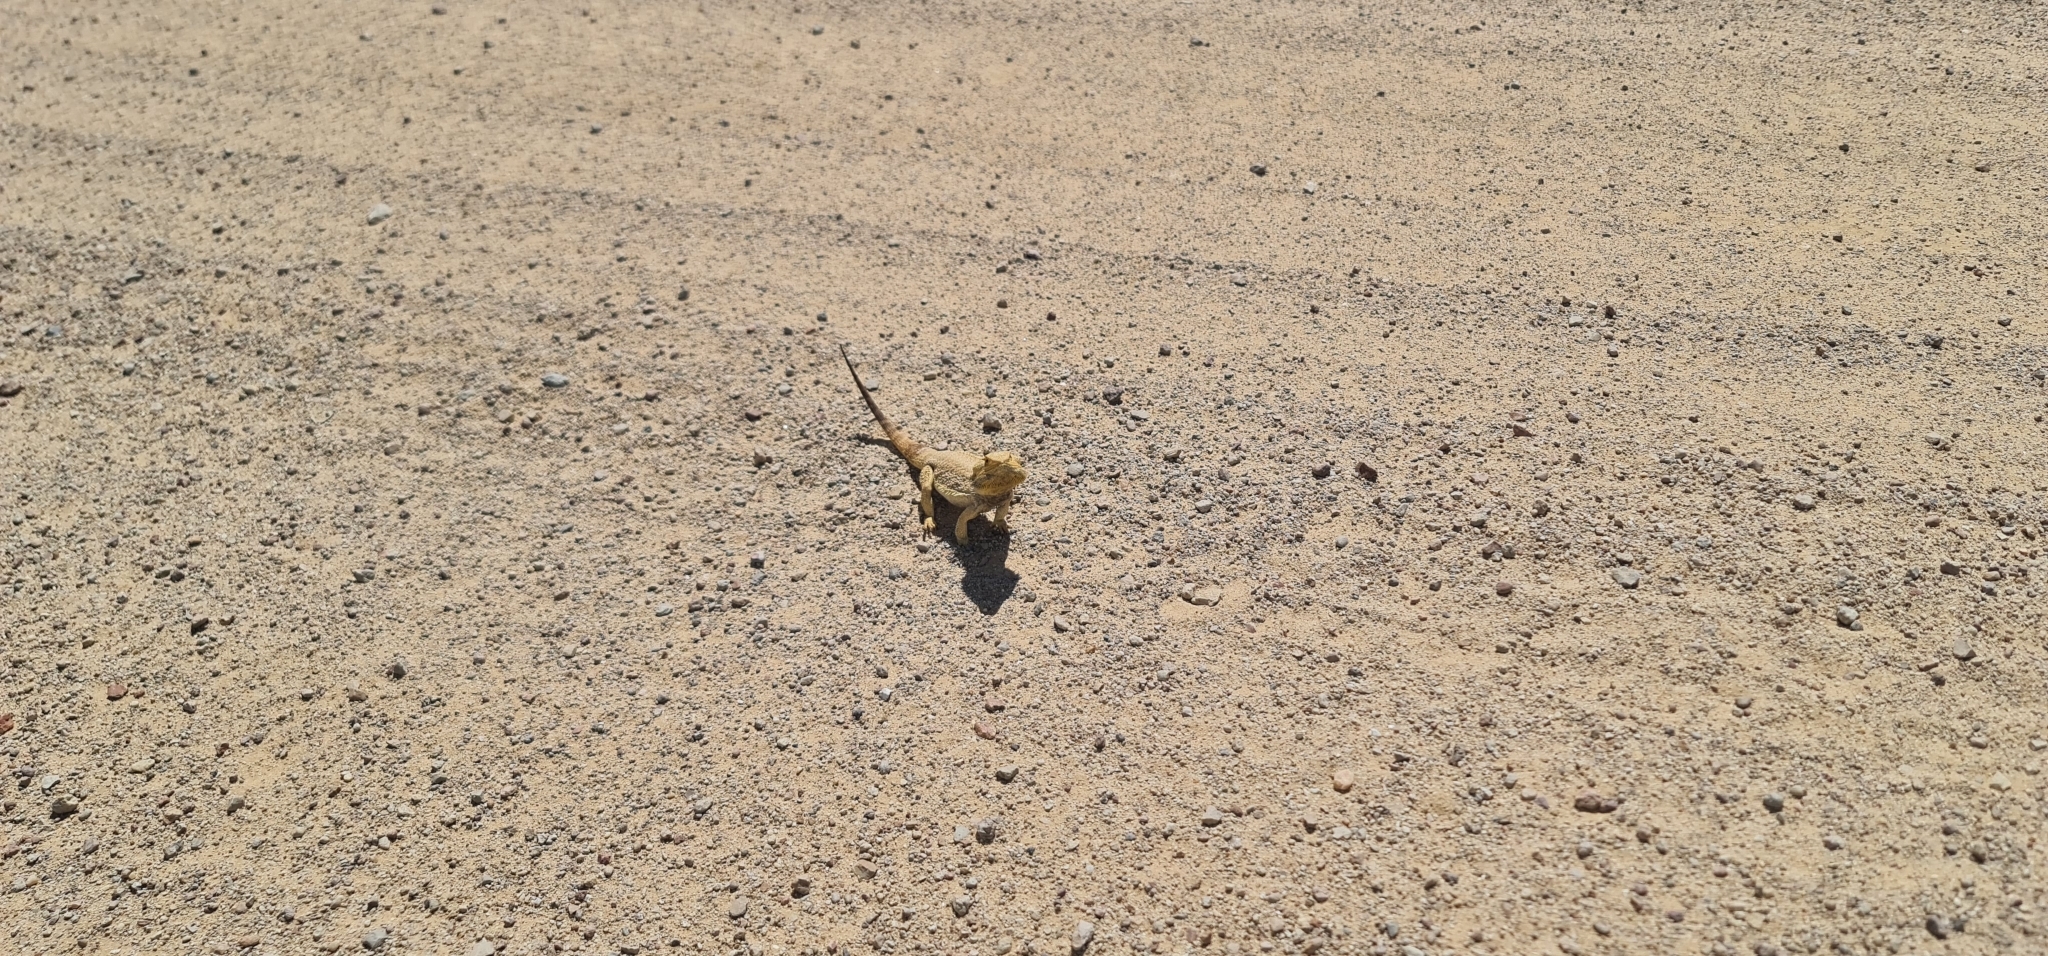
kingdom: Animalia
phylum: Chordata
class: Squamata
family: Agamidae
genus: Pogona
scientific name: Pogona vitticeps
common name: Central bearded dragon
